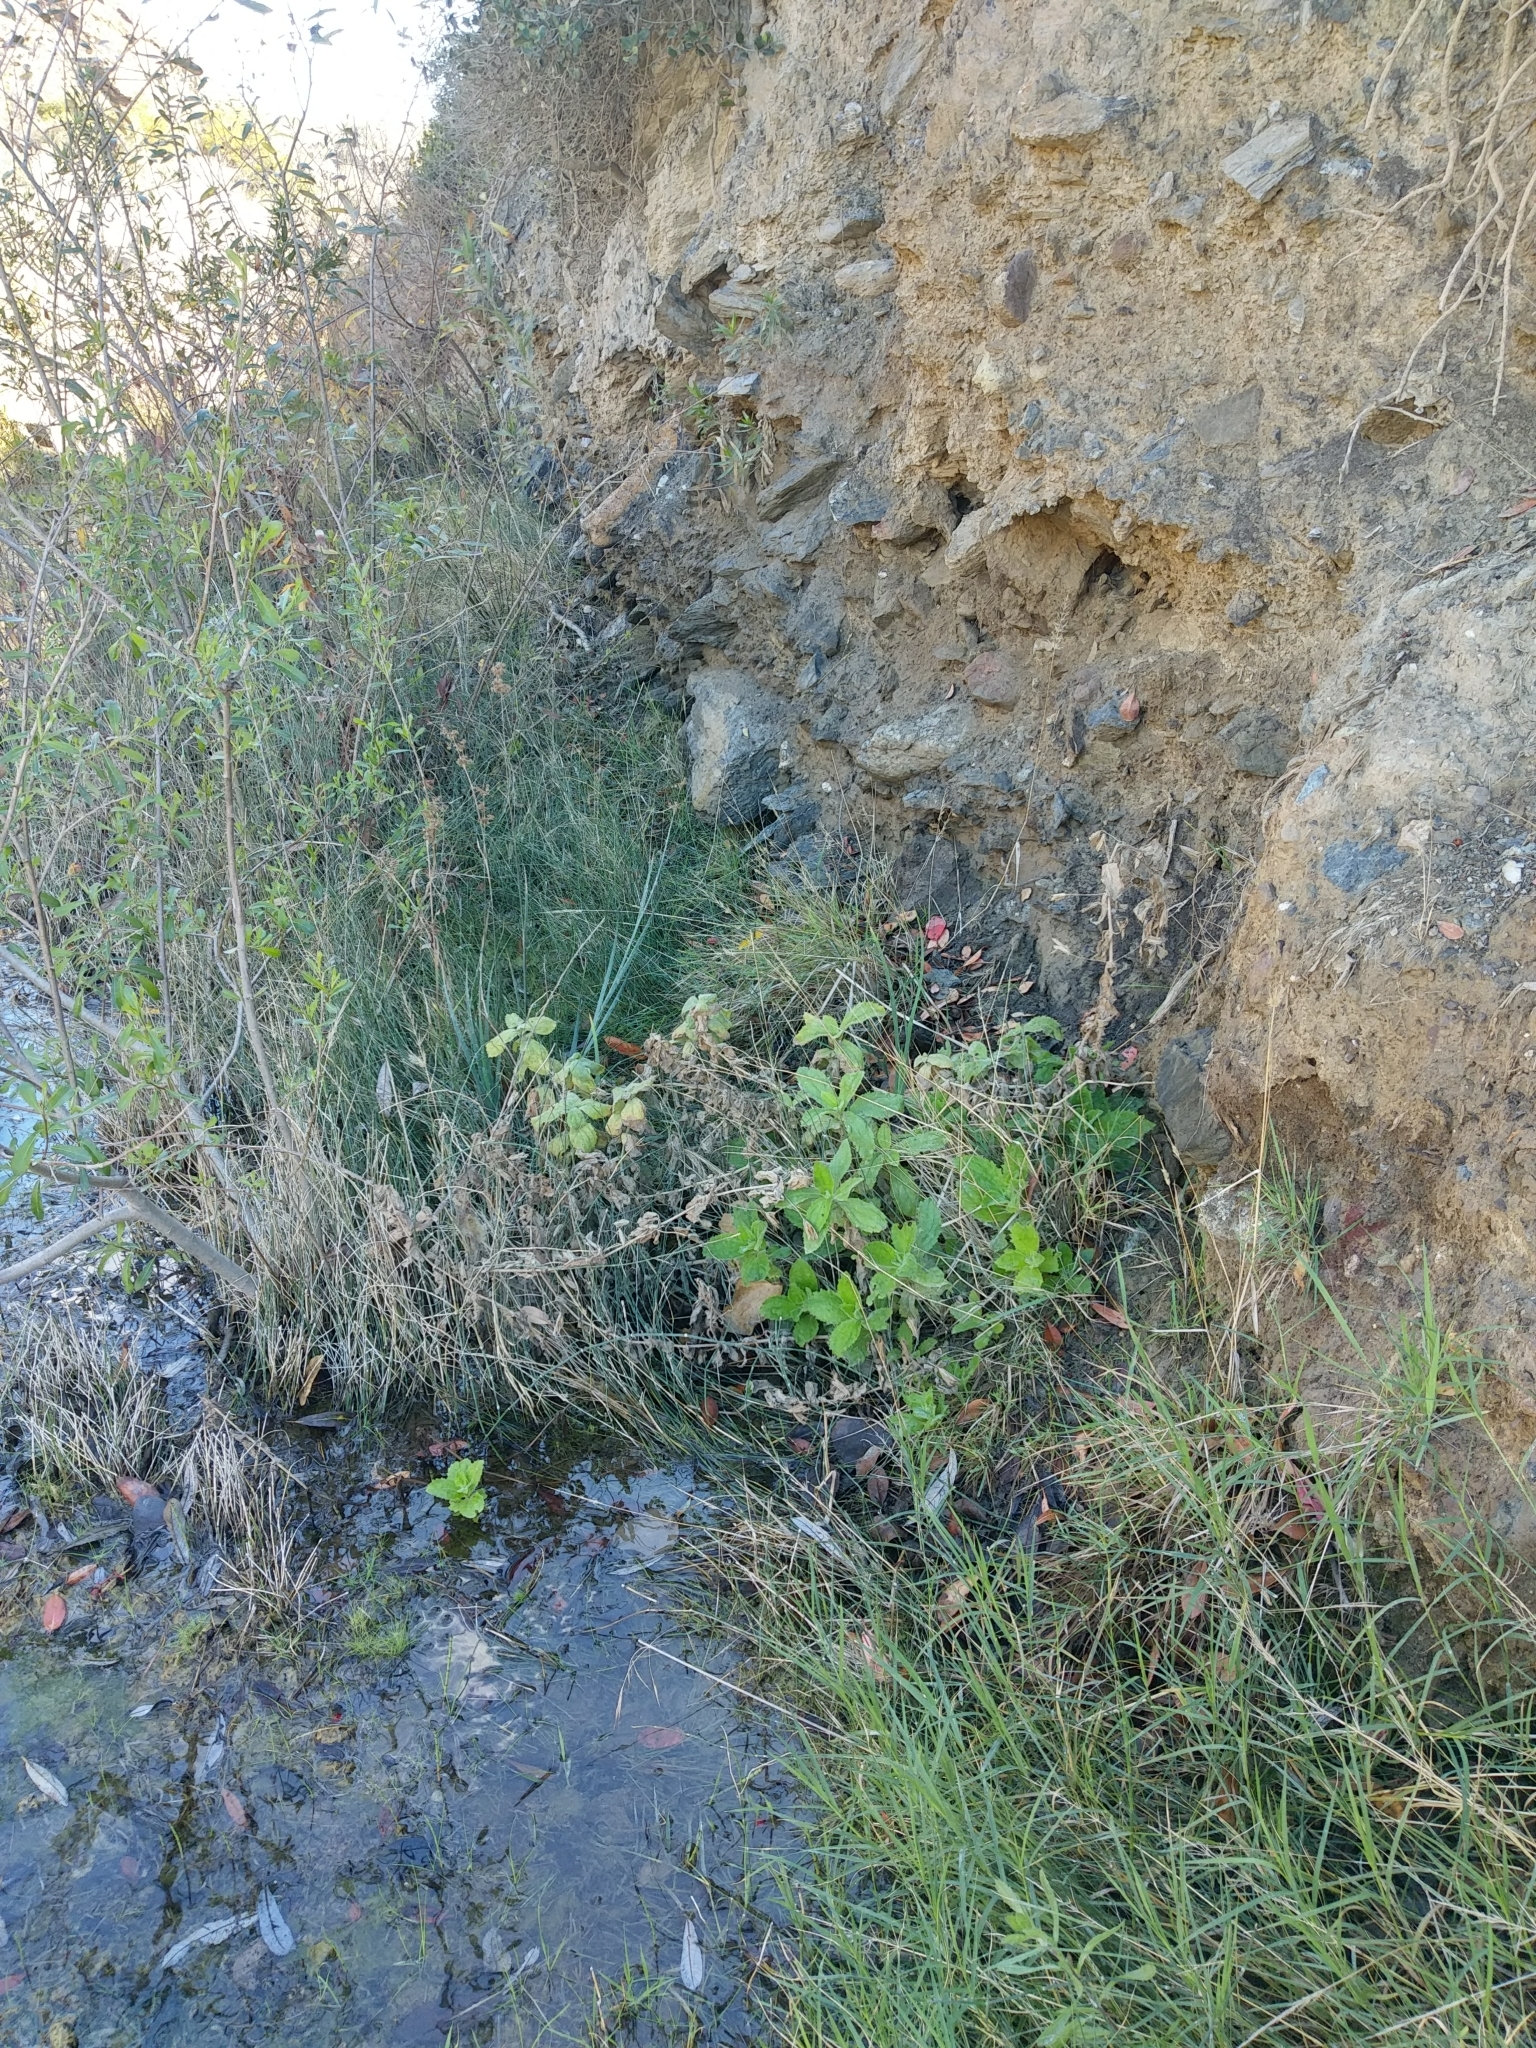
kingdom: Plantae
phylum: Tracheophyta
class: Magnoliopsida
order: Lamiales
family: Phrymaceae
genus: Erythranthe
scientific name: Erythranthe cardinalis
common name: Scarlet monkey-flower
